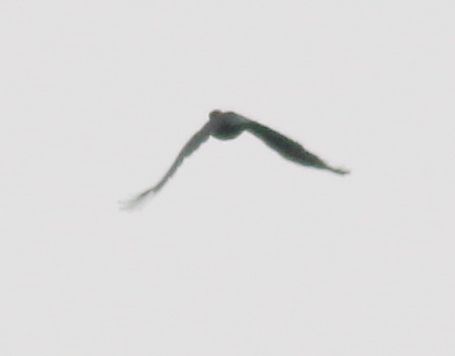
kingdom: Animalia
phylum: Chordata
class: Aves
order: Piciformes
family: Picidae
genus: Dryocopus
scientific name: Dryocopus martius
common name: Black woodpecker
